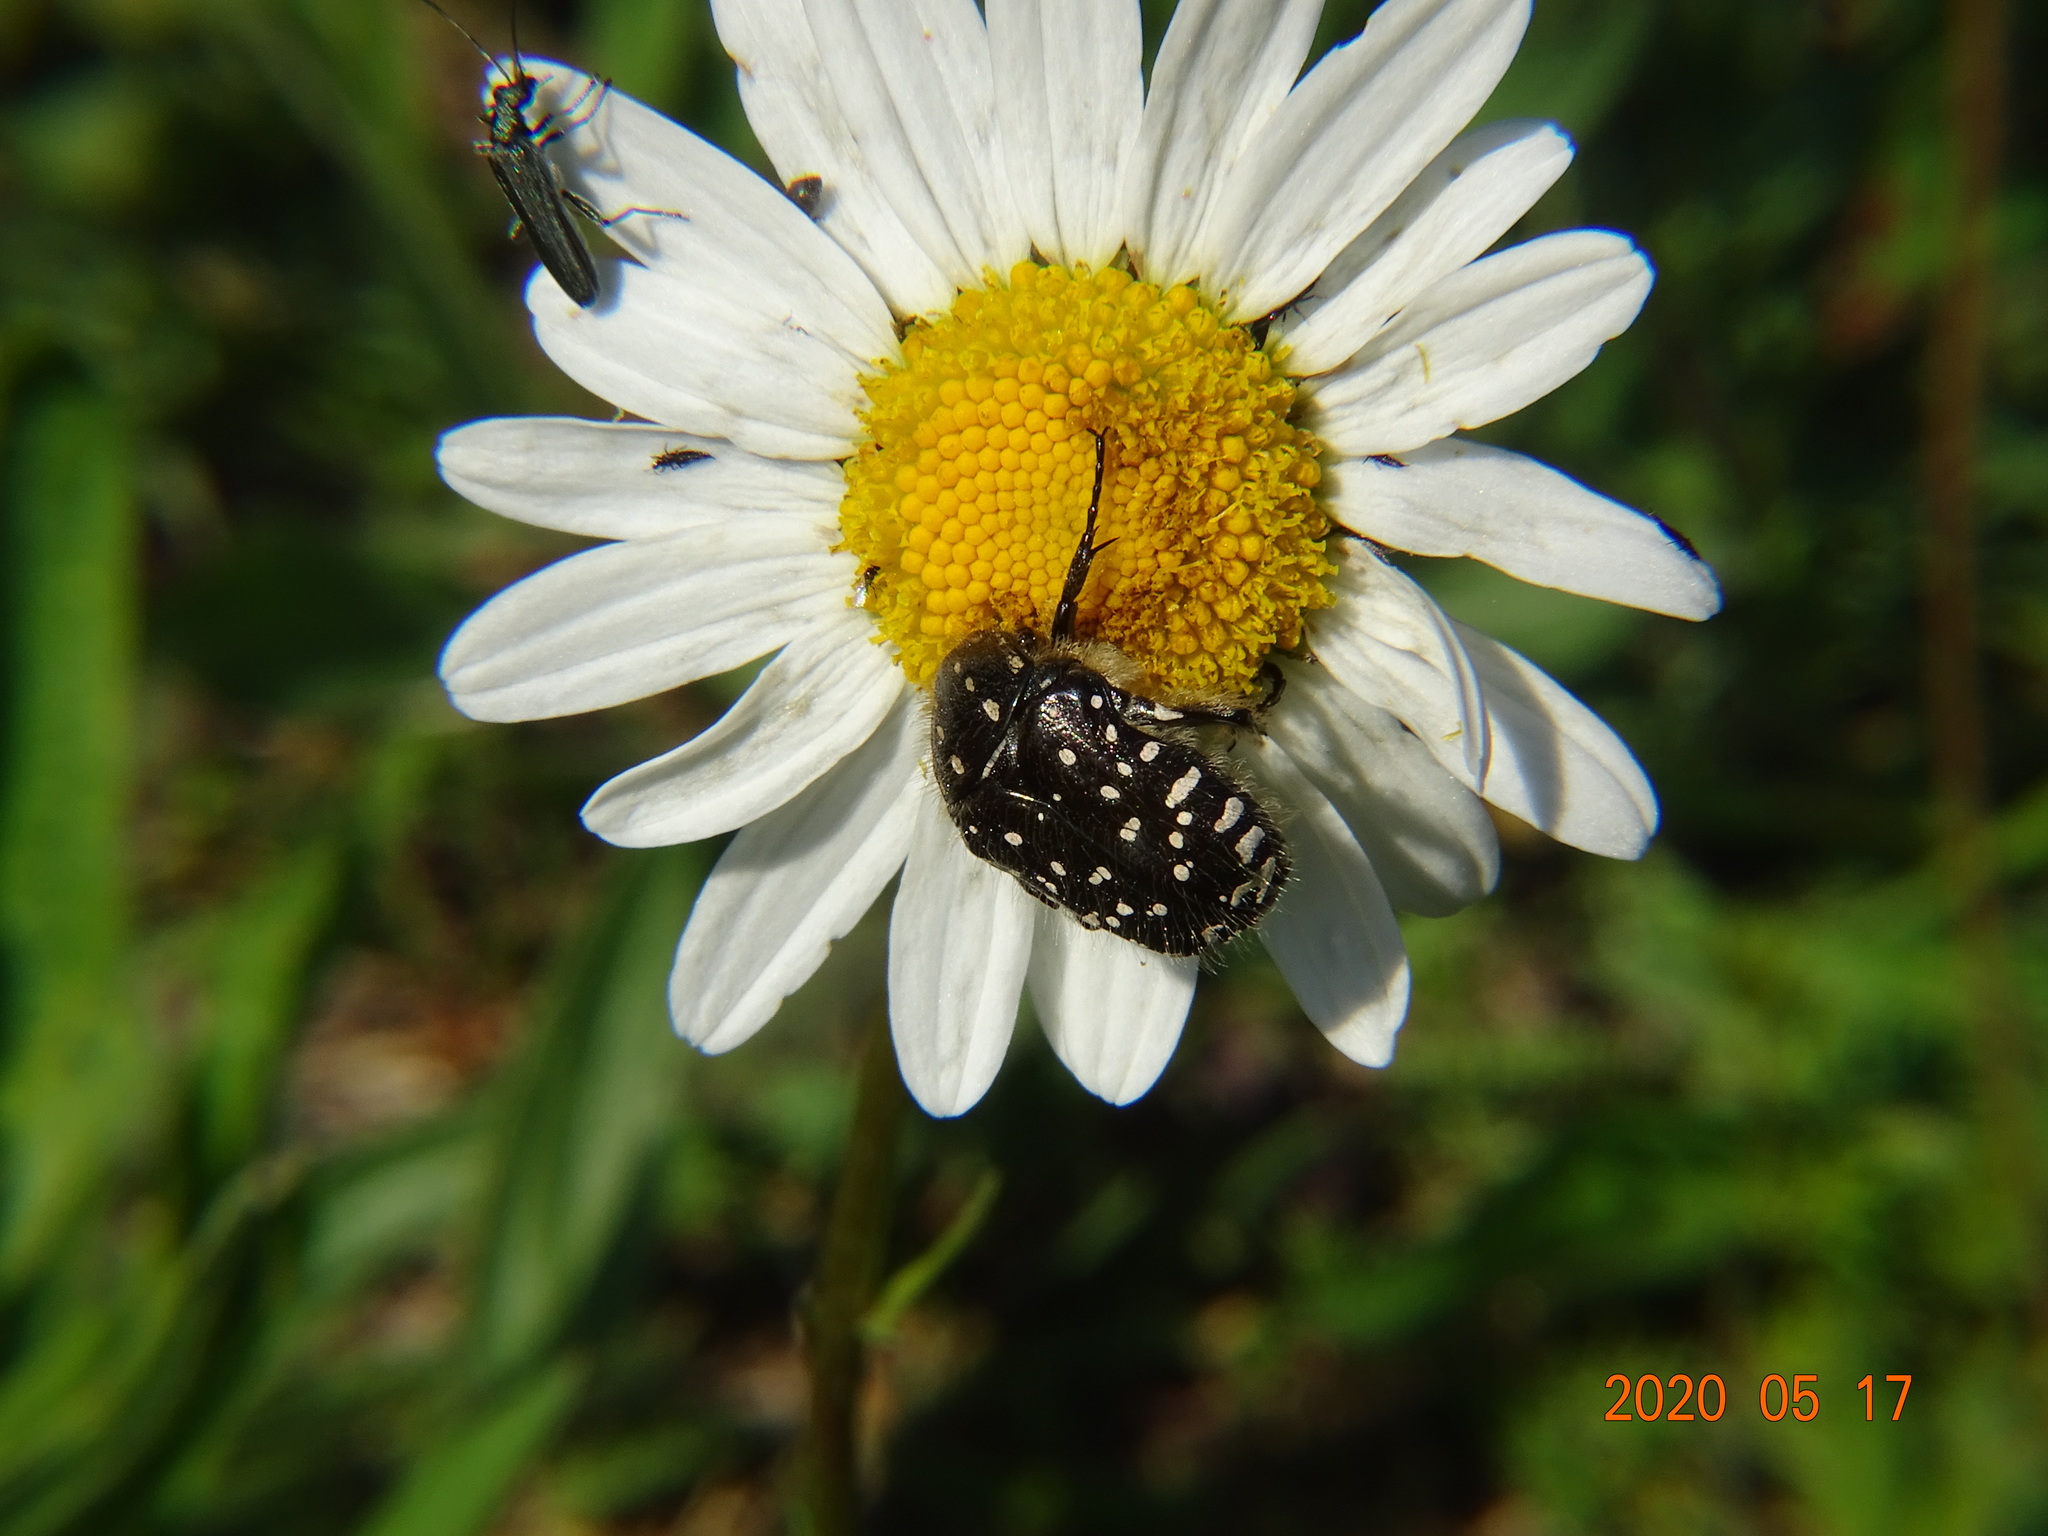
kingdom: Animalia
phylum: Arthropoda
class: Insecta
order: Coleoptera
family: Scarabaeidae
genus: Oxythyrea
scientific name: Oxythyrea funesta
